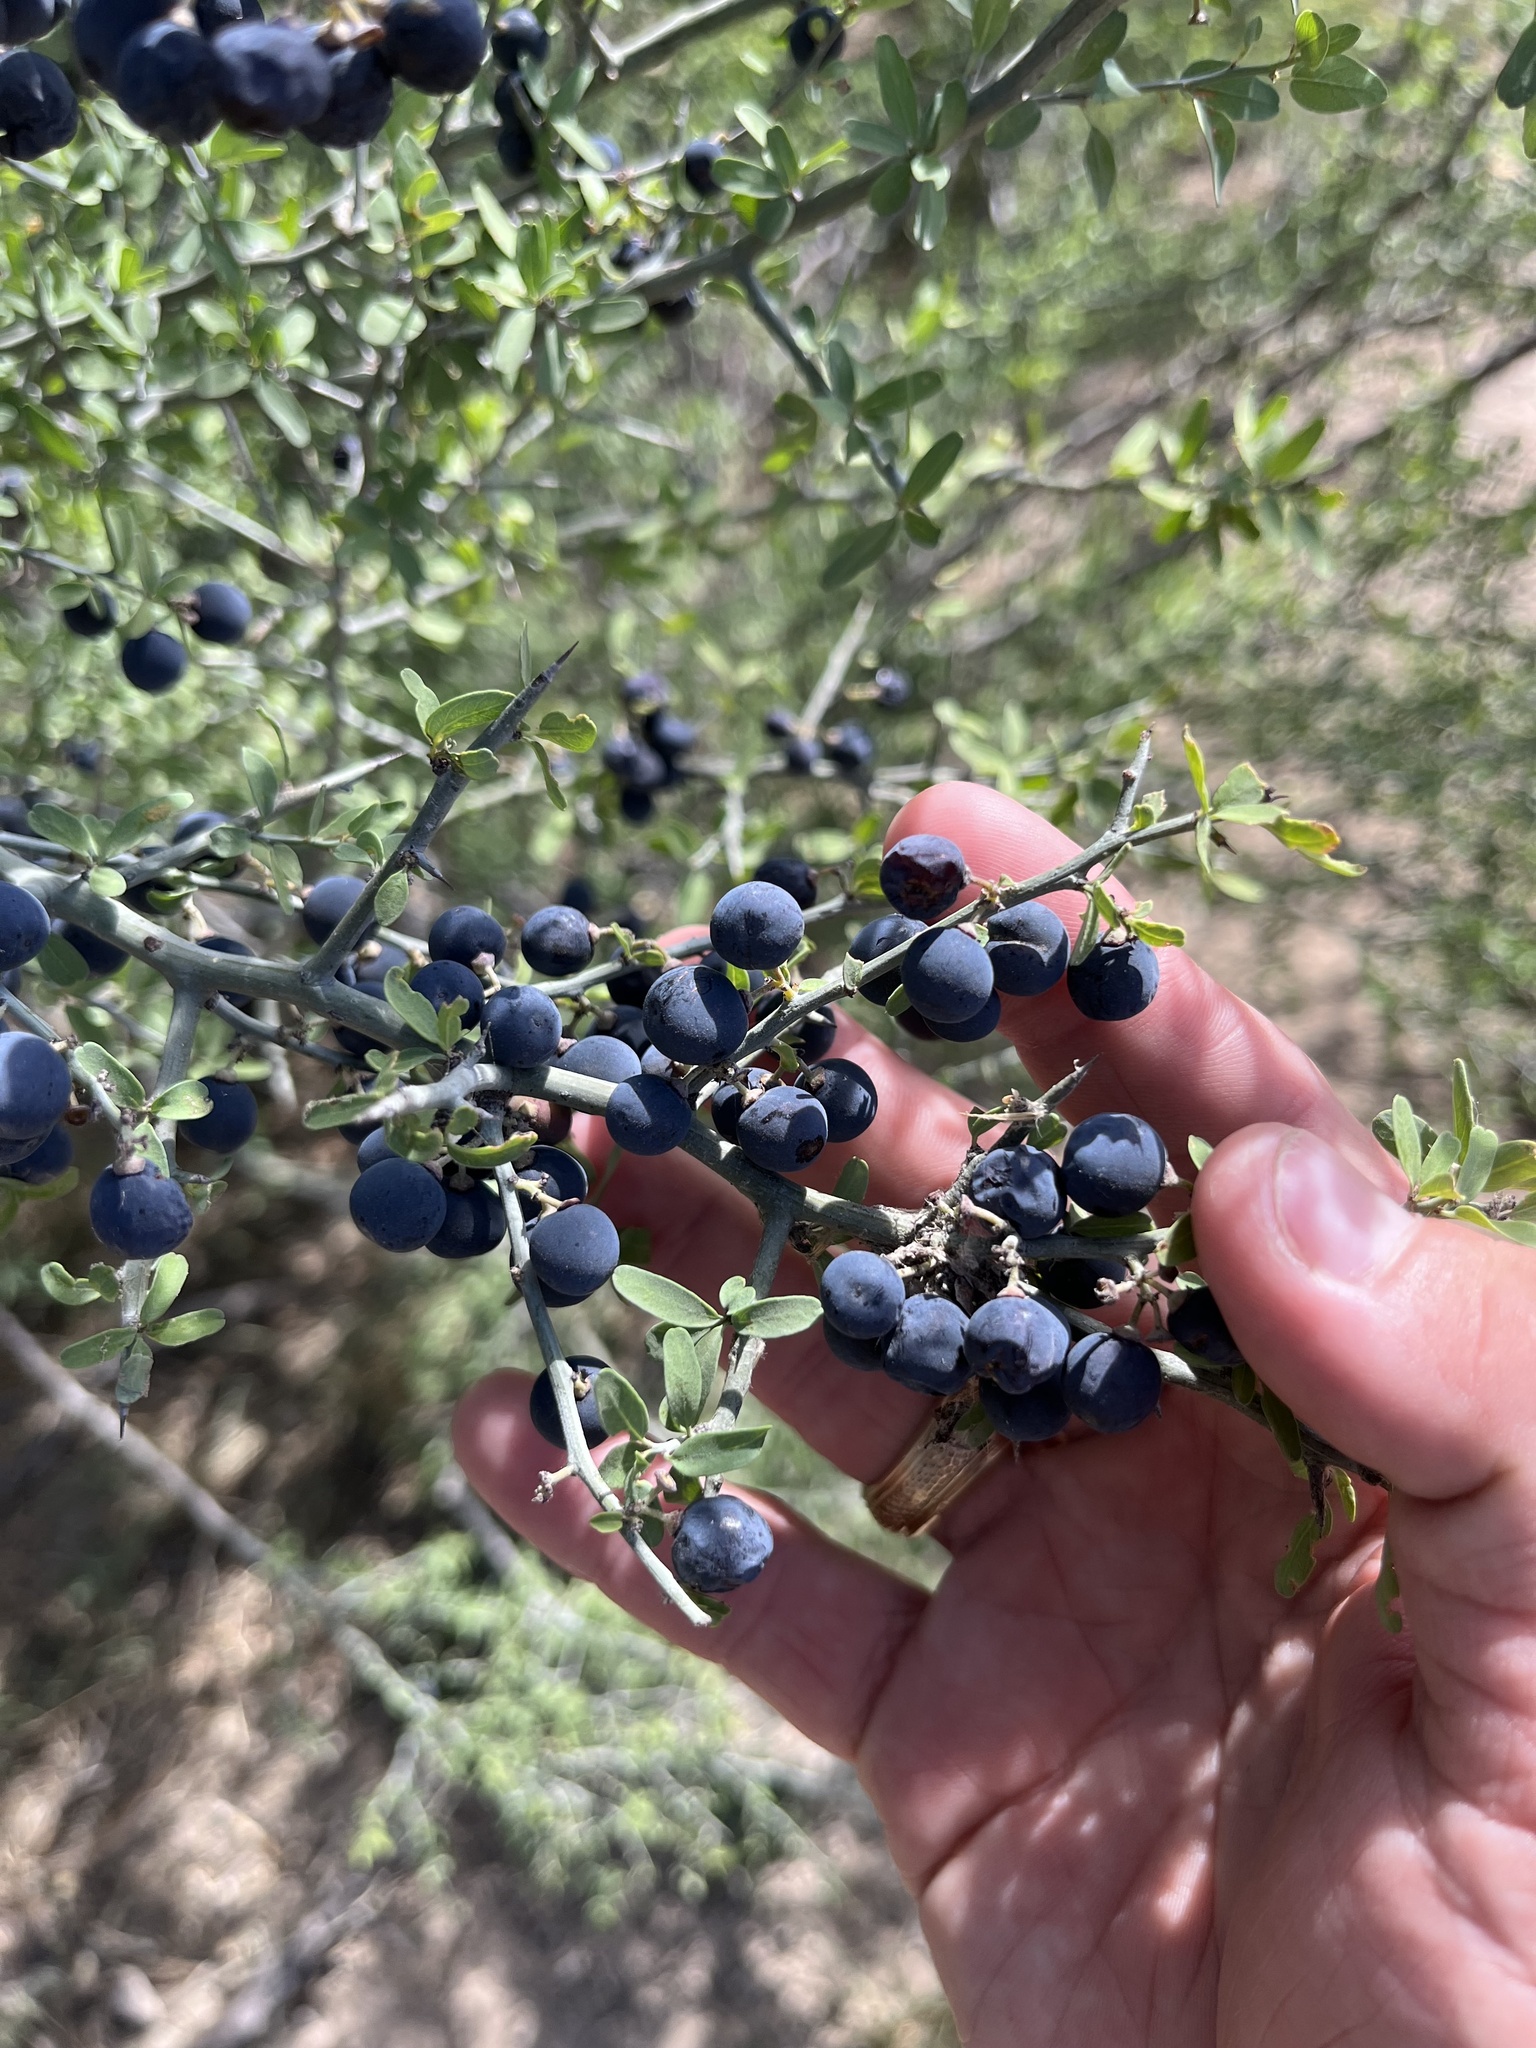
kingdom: Plantae
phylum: Tracheophyta
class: Magnoliopsida
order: Rosales
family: Rhamnaceae
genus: Sarcomphalus
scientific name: Sarcomphalus obtusifolius
